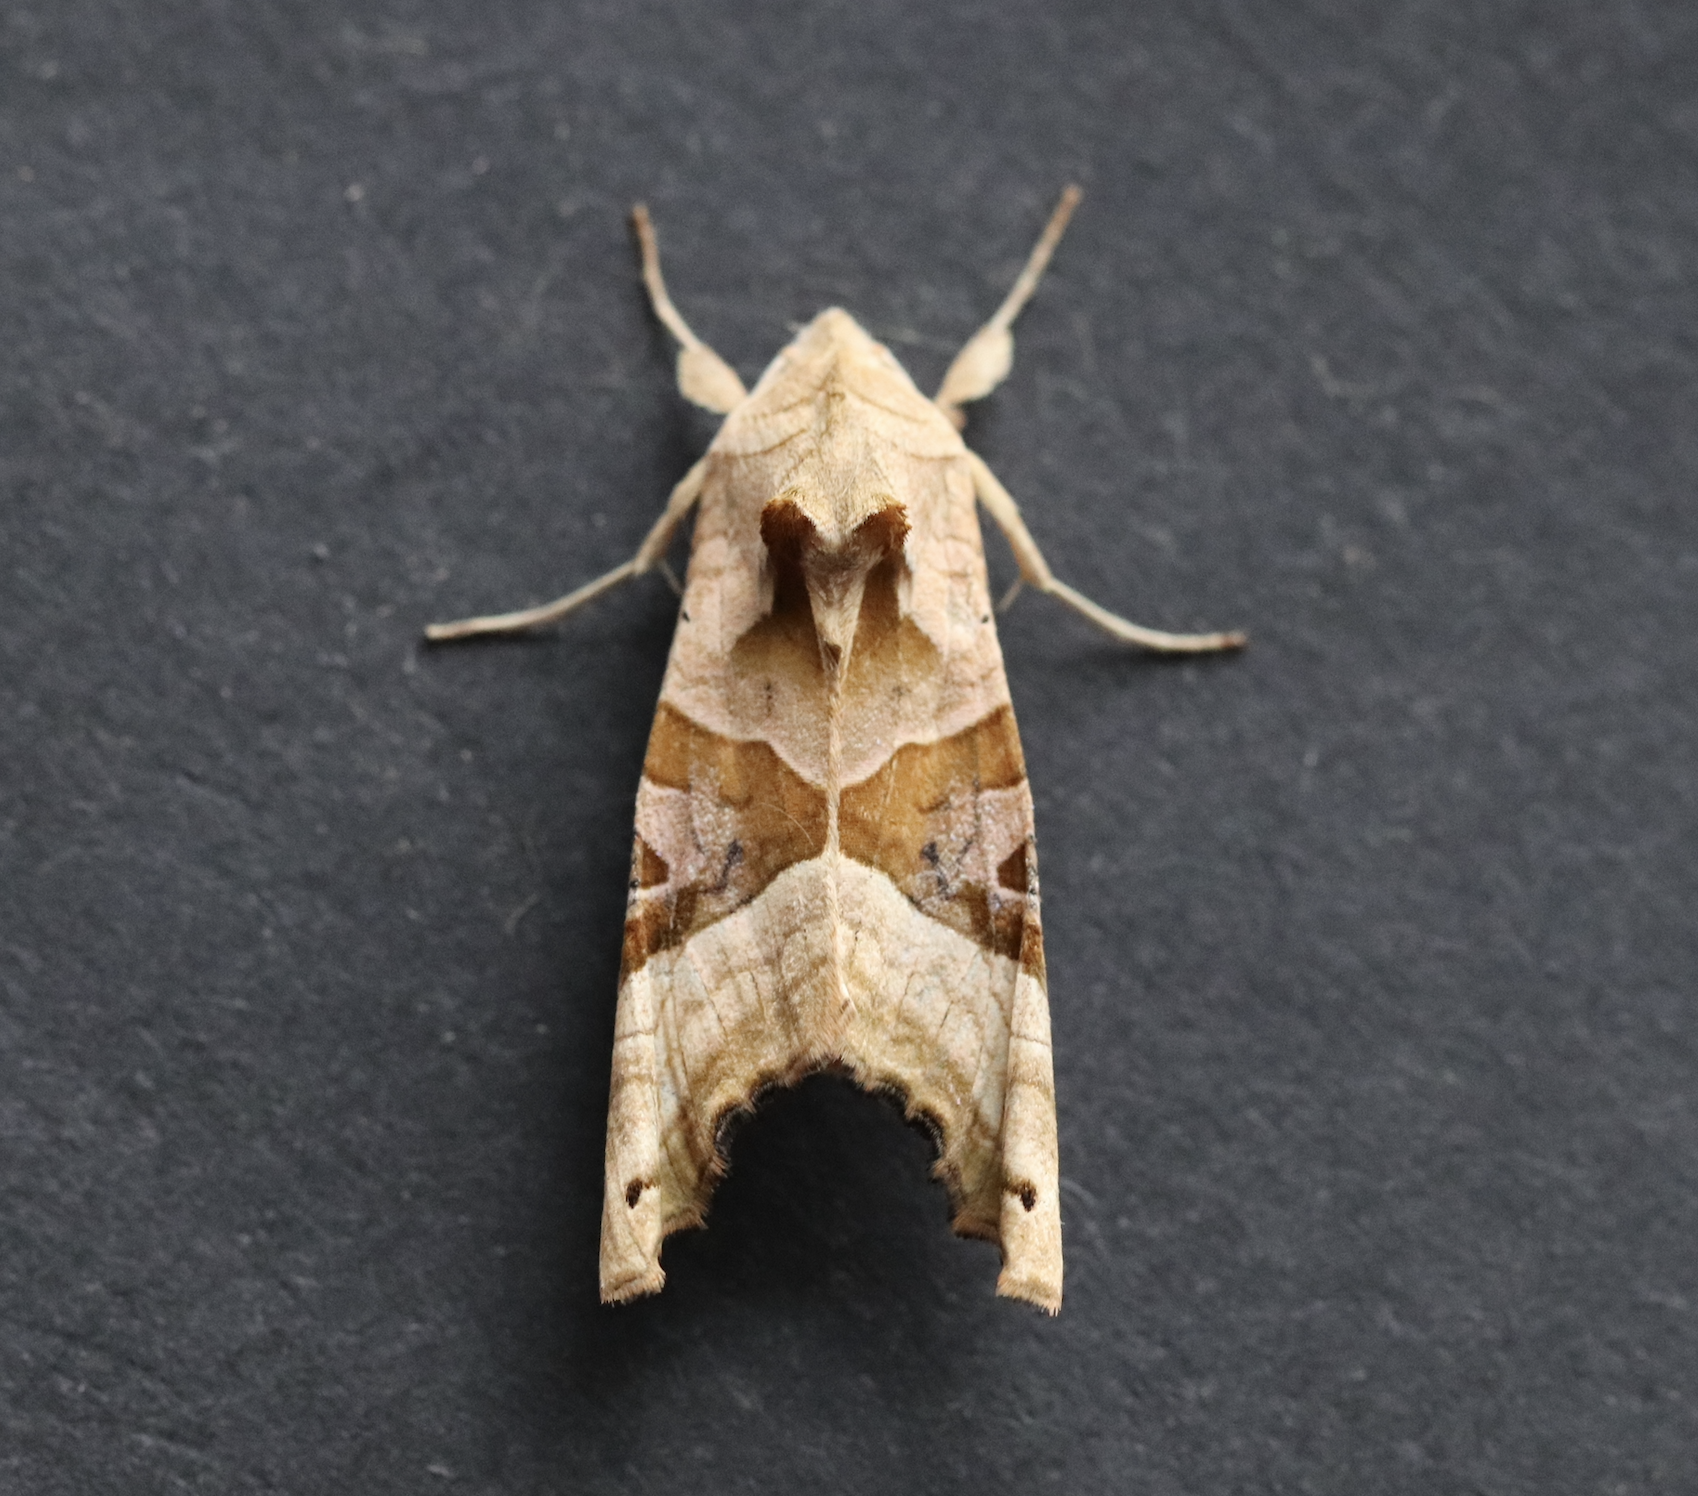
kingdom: Animalia
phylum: Arthropoda
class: Insecta
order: Lepidoptera
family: Noctuidae
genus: Phlogophora
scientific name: Phlogophora meticulosa
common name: Angle shades
